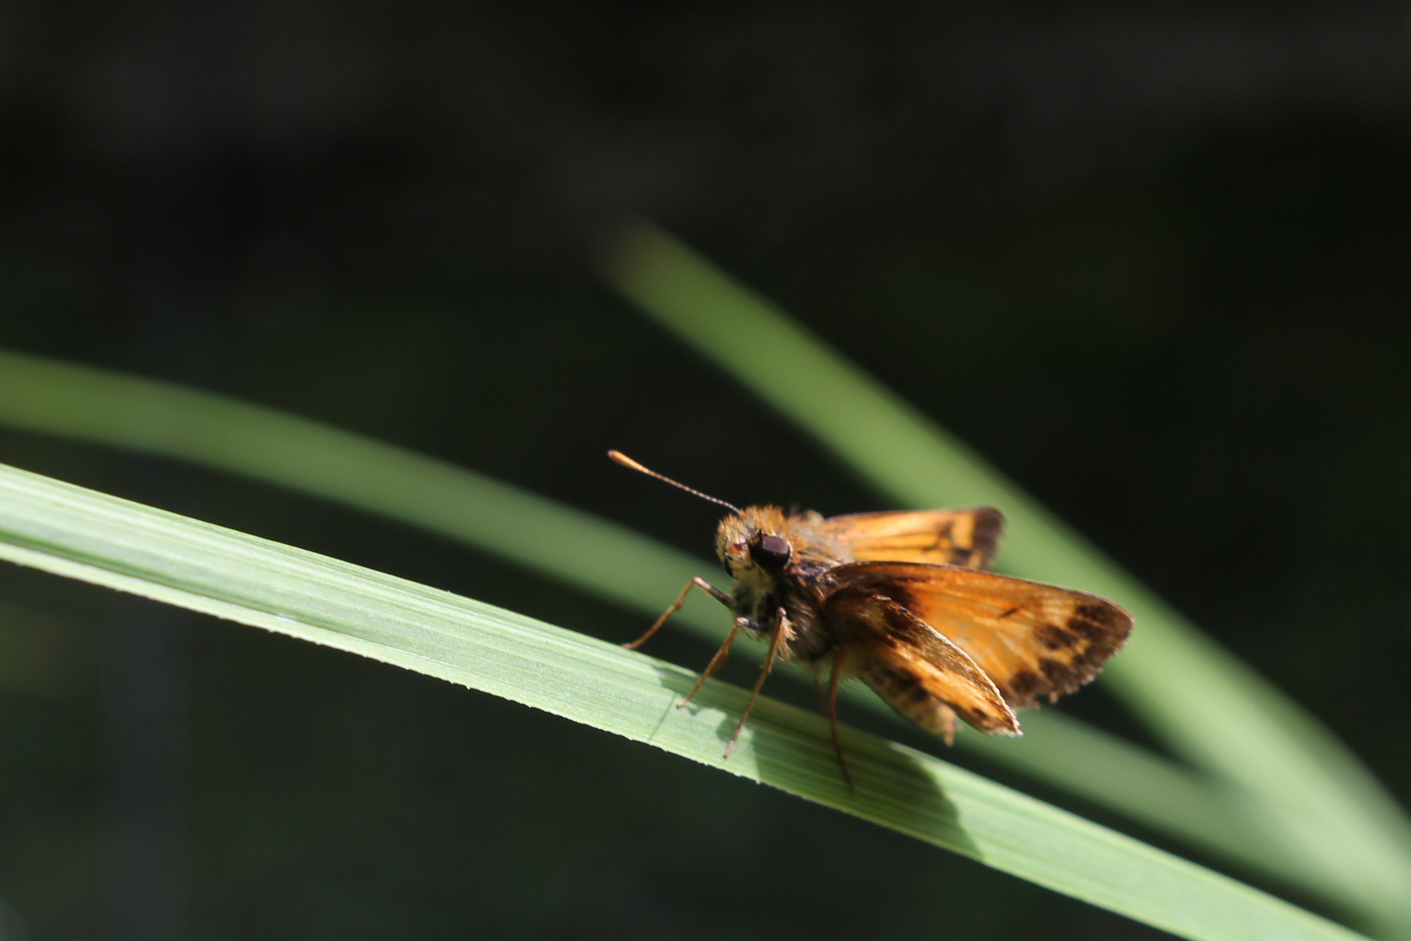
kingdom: Animalia
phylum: Arthropoda
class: Insecta
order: Lepidoptera
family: Hesperiidae
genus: Lon
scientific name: Lon zabulon
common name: Zabulon skipper
